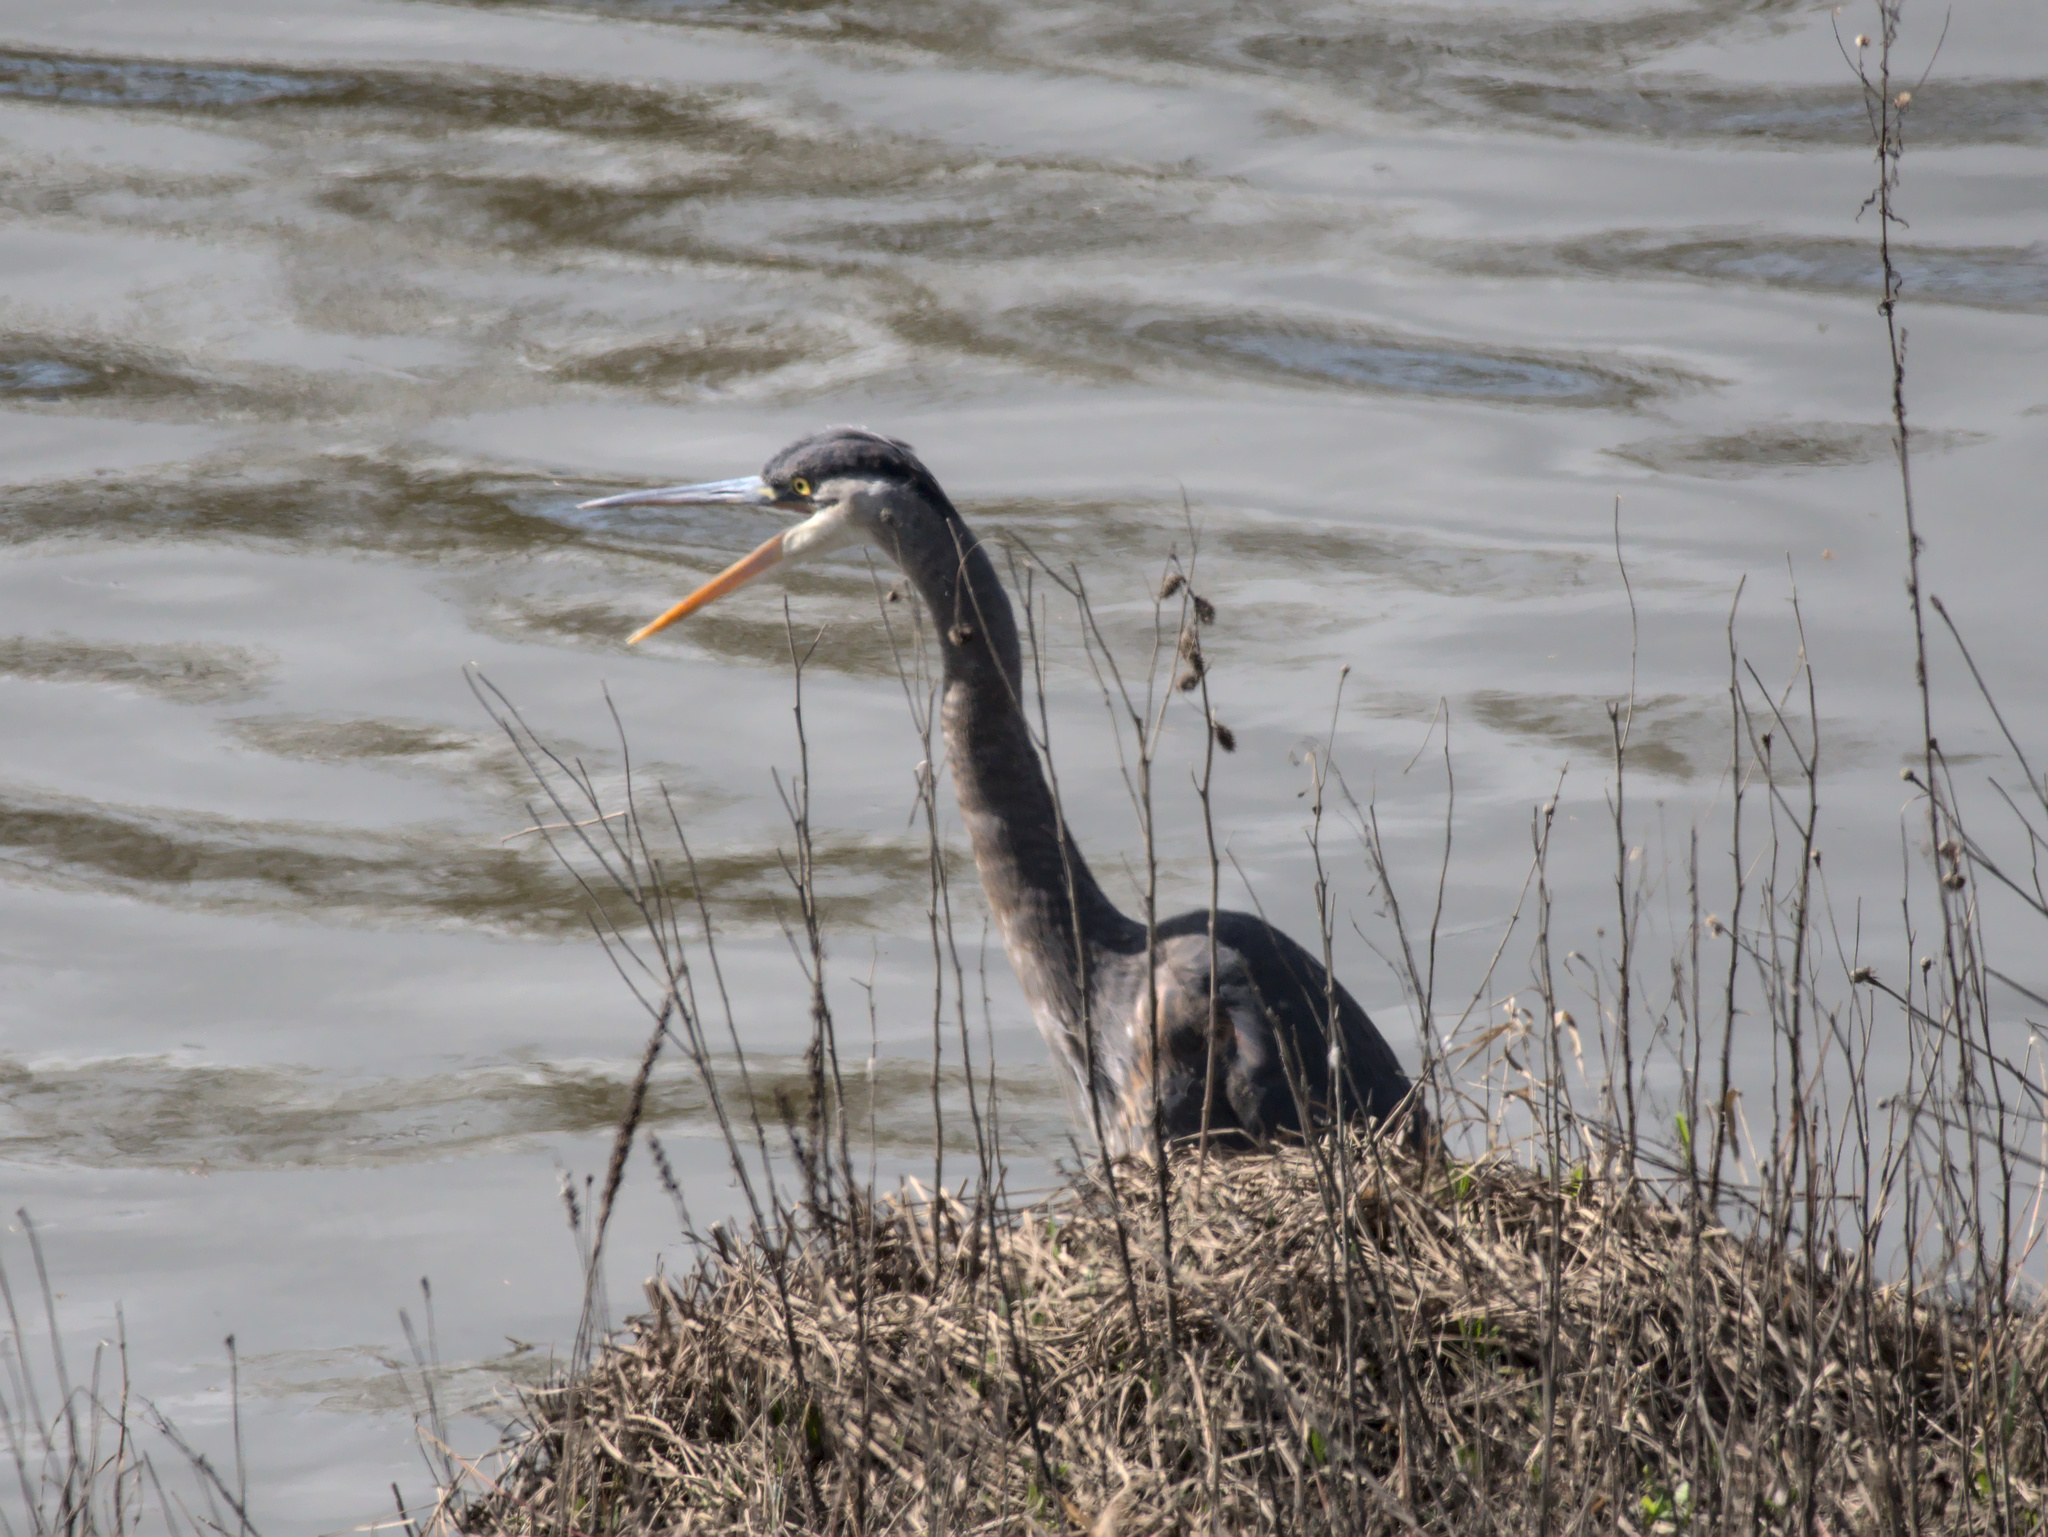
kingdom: Animalia
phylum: Chordata
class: Aves
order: Pelecaniformes
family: Ardeidae
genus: Ardea
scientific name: Ardea herodias
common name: Great blue heron
